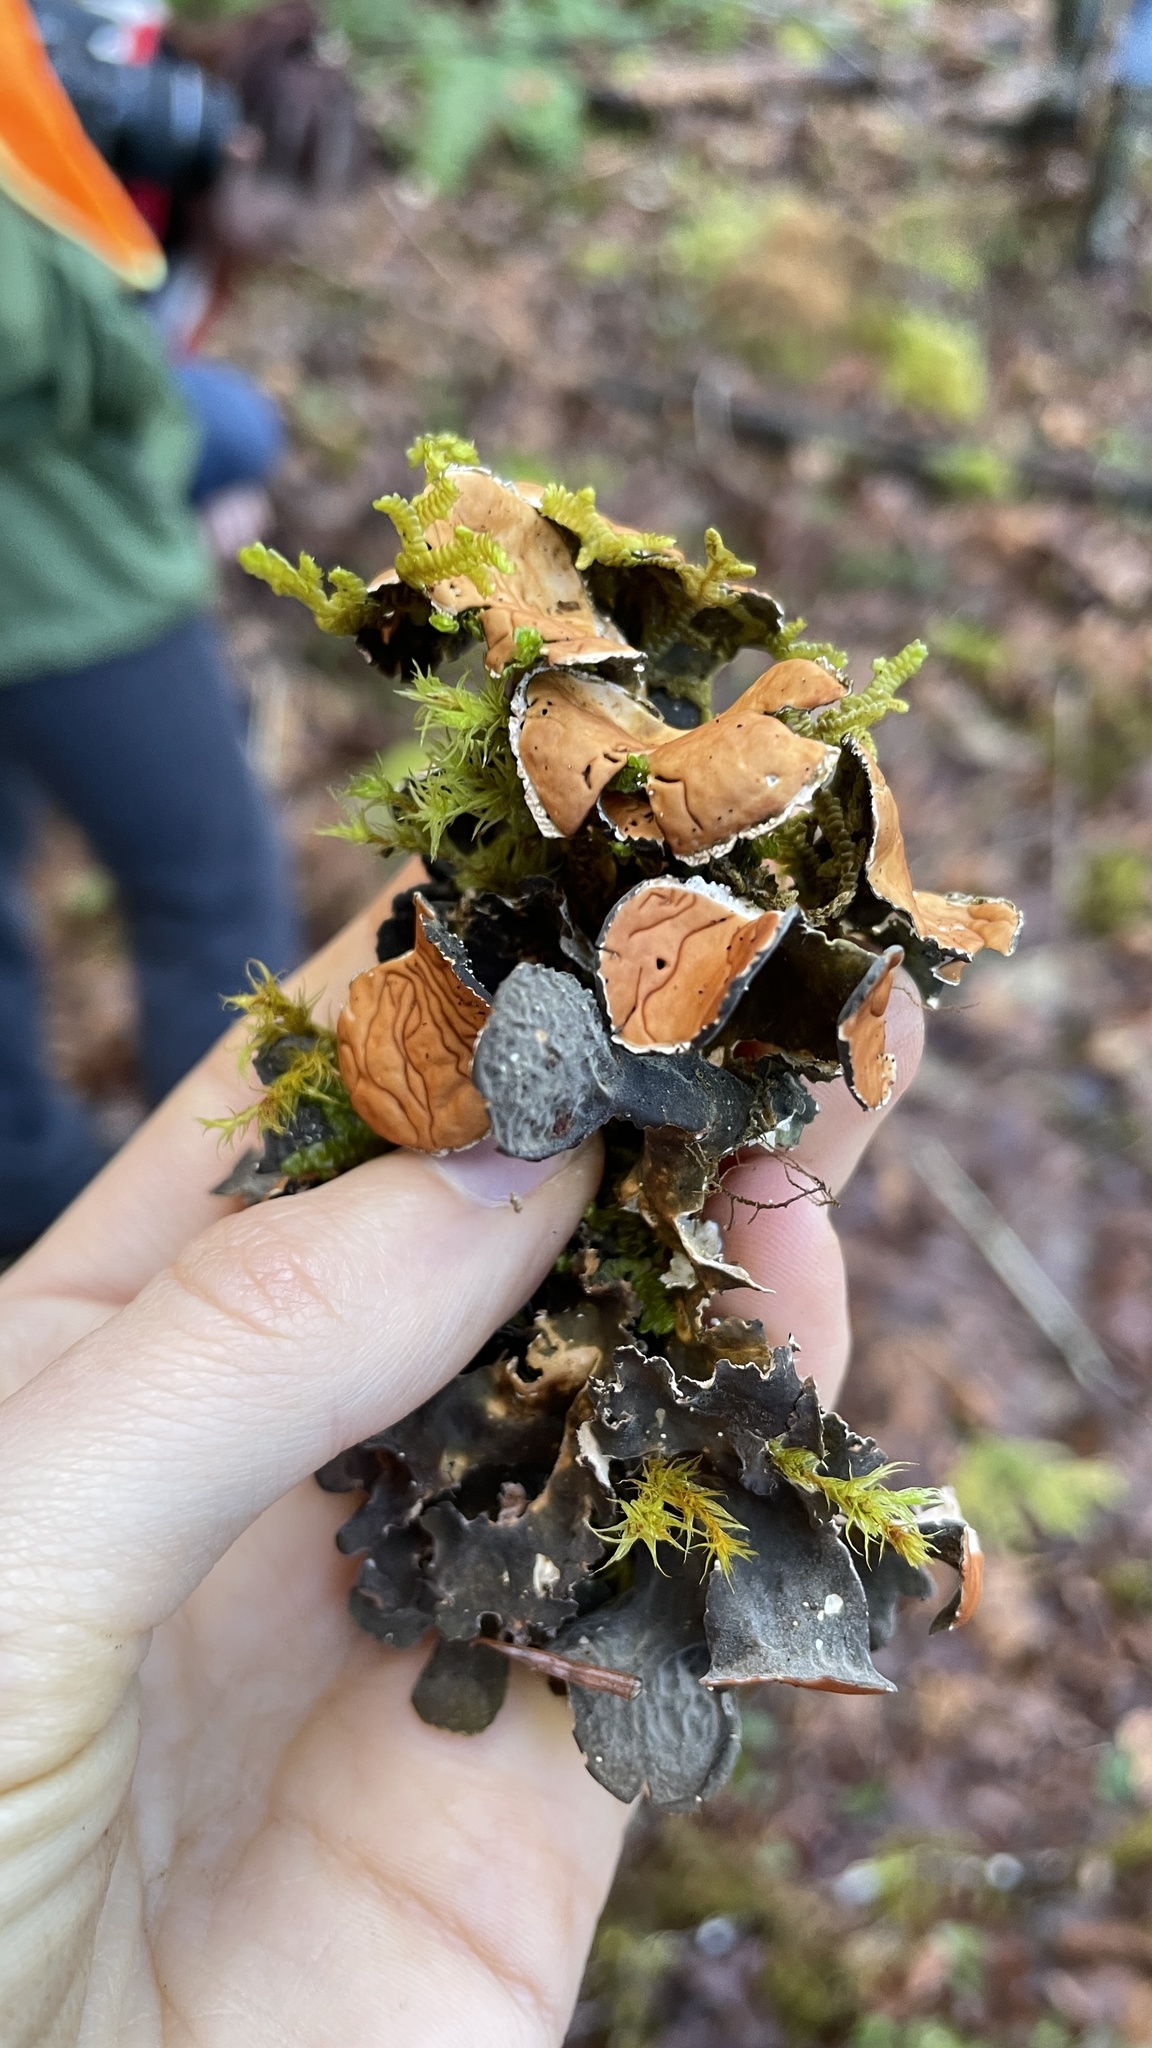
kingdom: Fungi
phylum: Ascomycota
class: Lecanoromycetes
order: Peltigerales
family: Nephromataceae
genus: Nephroma
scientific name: Nephroma resupinatum
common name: Pimpled kidney lichen
